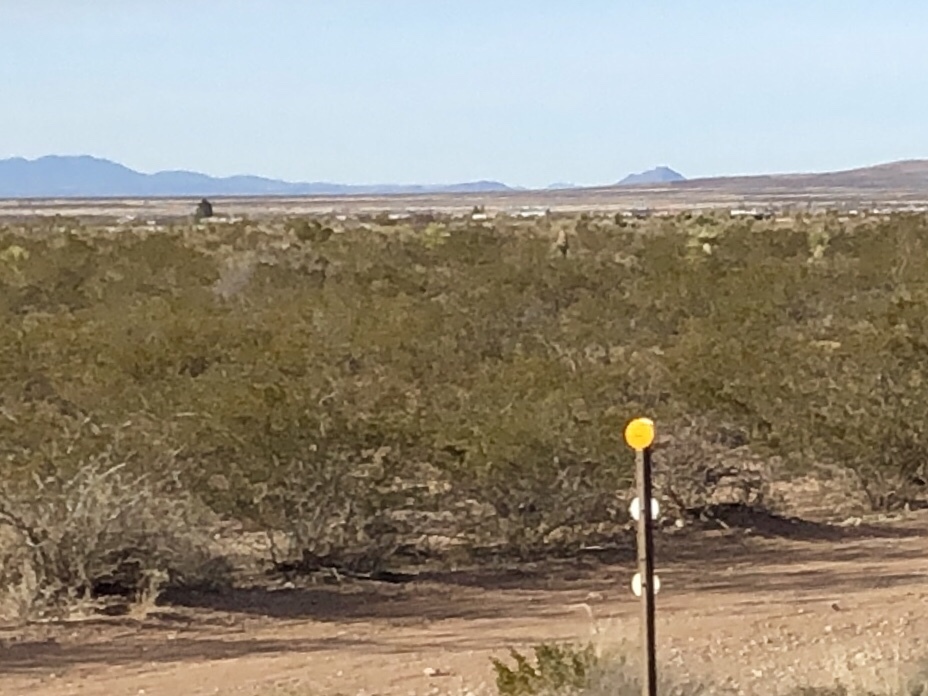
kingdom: Plantae
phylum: Tracheophyta
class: Magnoliopsida
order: Zygophyllales
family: Zygophyllaceae
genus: Larrea
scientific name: Larrea tridentata
